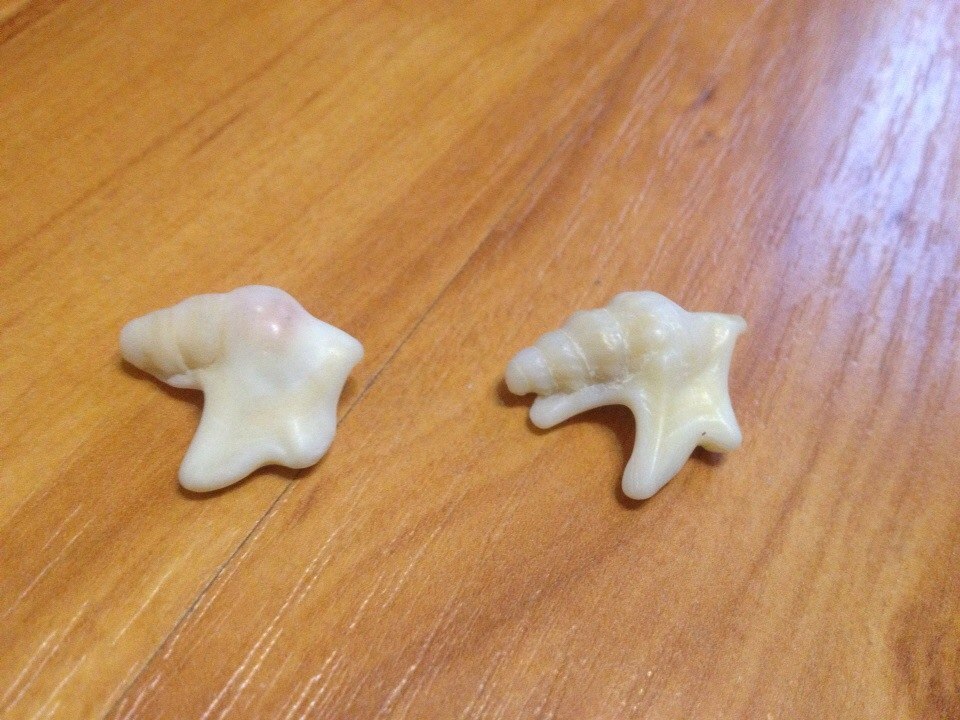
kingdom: Animalia
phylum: Mollusca
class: Gastropoda
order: Littorinimorpha
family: Aporrhaidae
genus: Aporrhais
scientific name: Aporrhais pespelecani
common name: Common pelican’s foot
